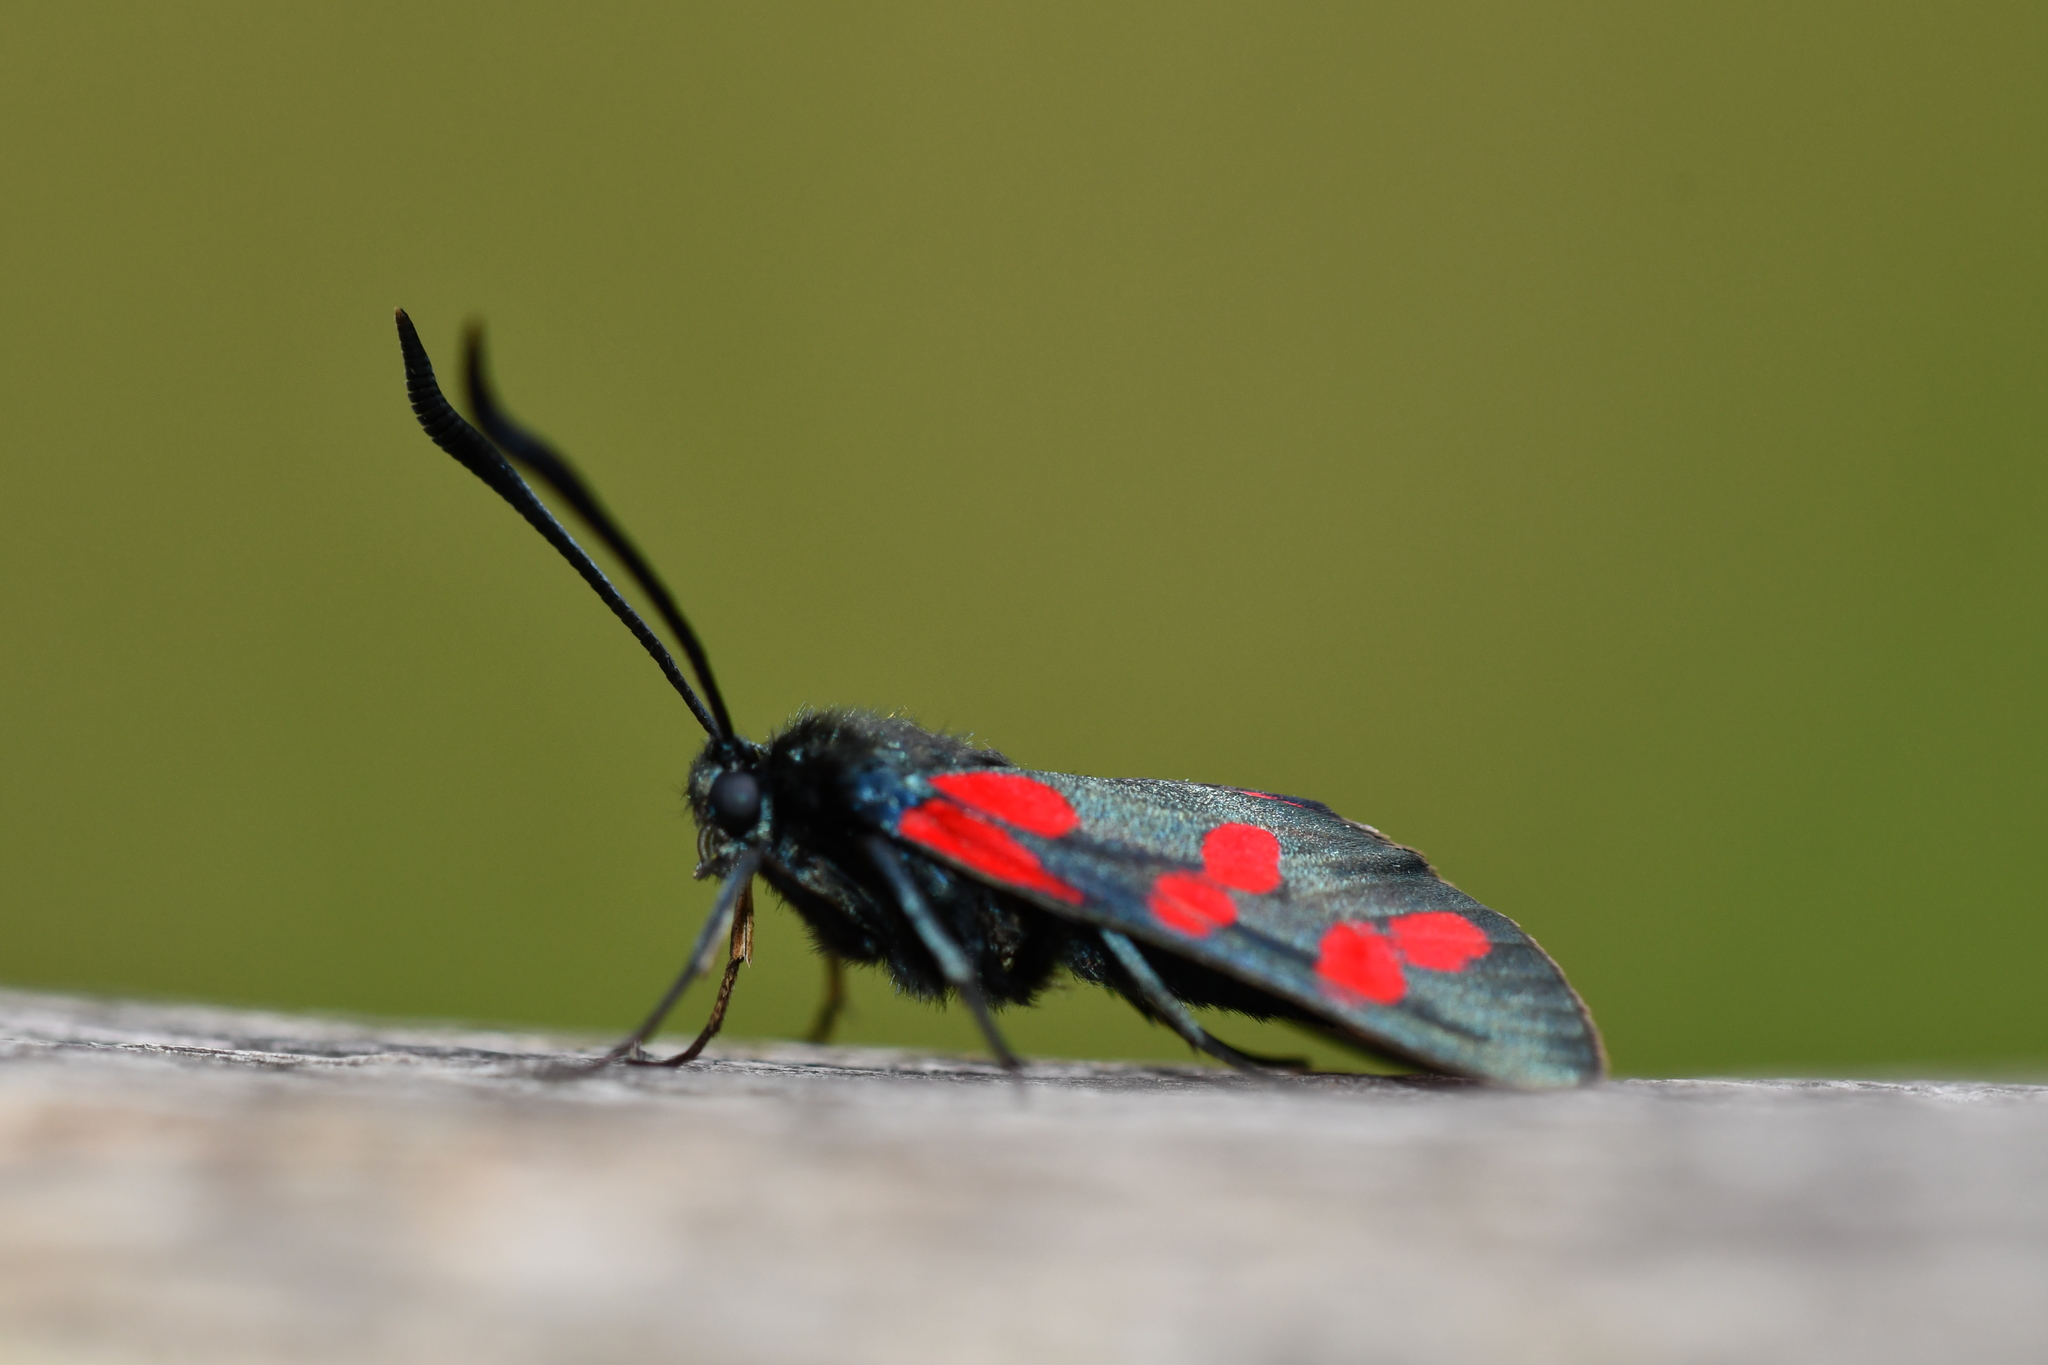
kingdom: Animalia
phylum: Arthropoda
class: Insecta
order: Lepidoptera
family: Zygaenidae
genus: Zygaena
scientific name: Zygaena filipendulae
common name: Six-spot burnet
